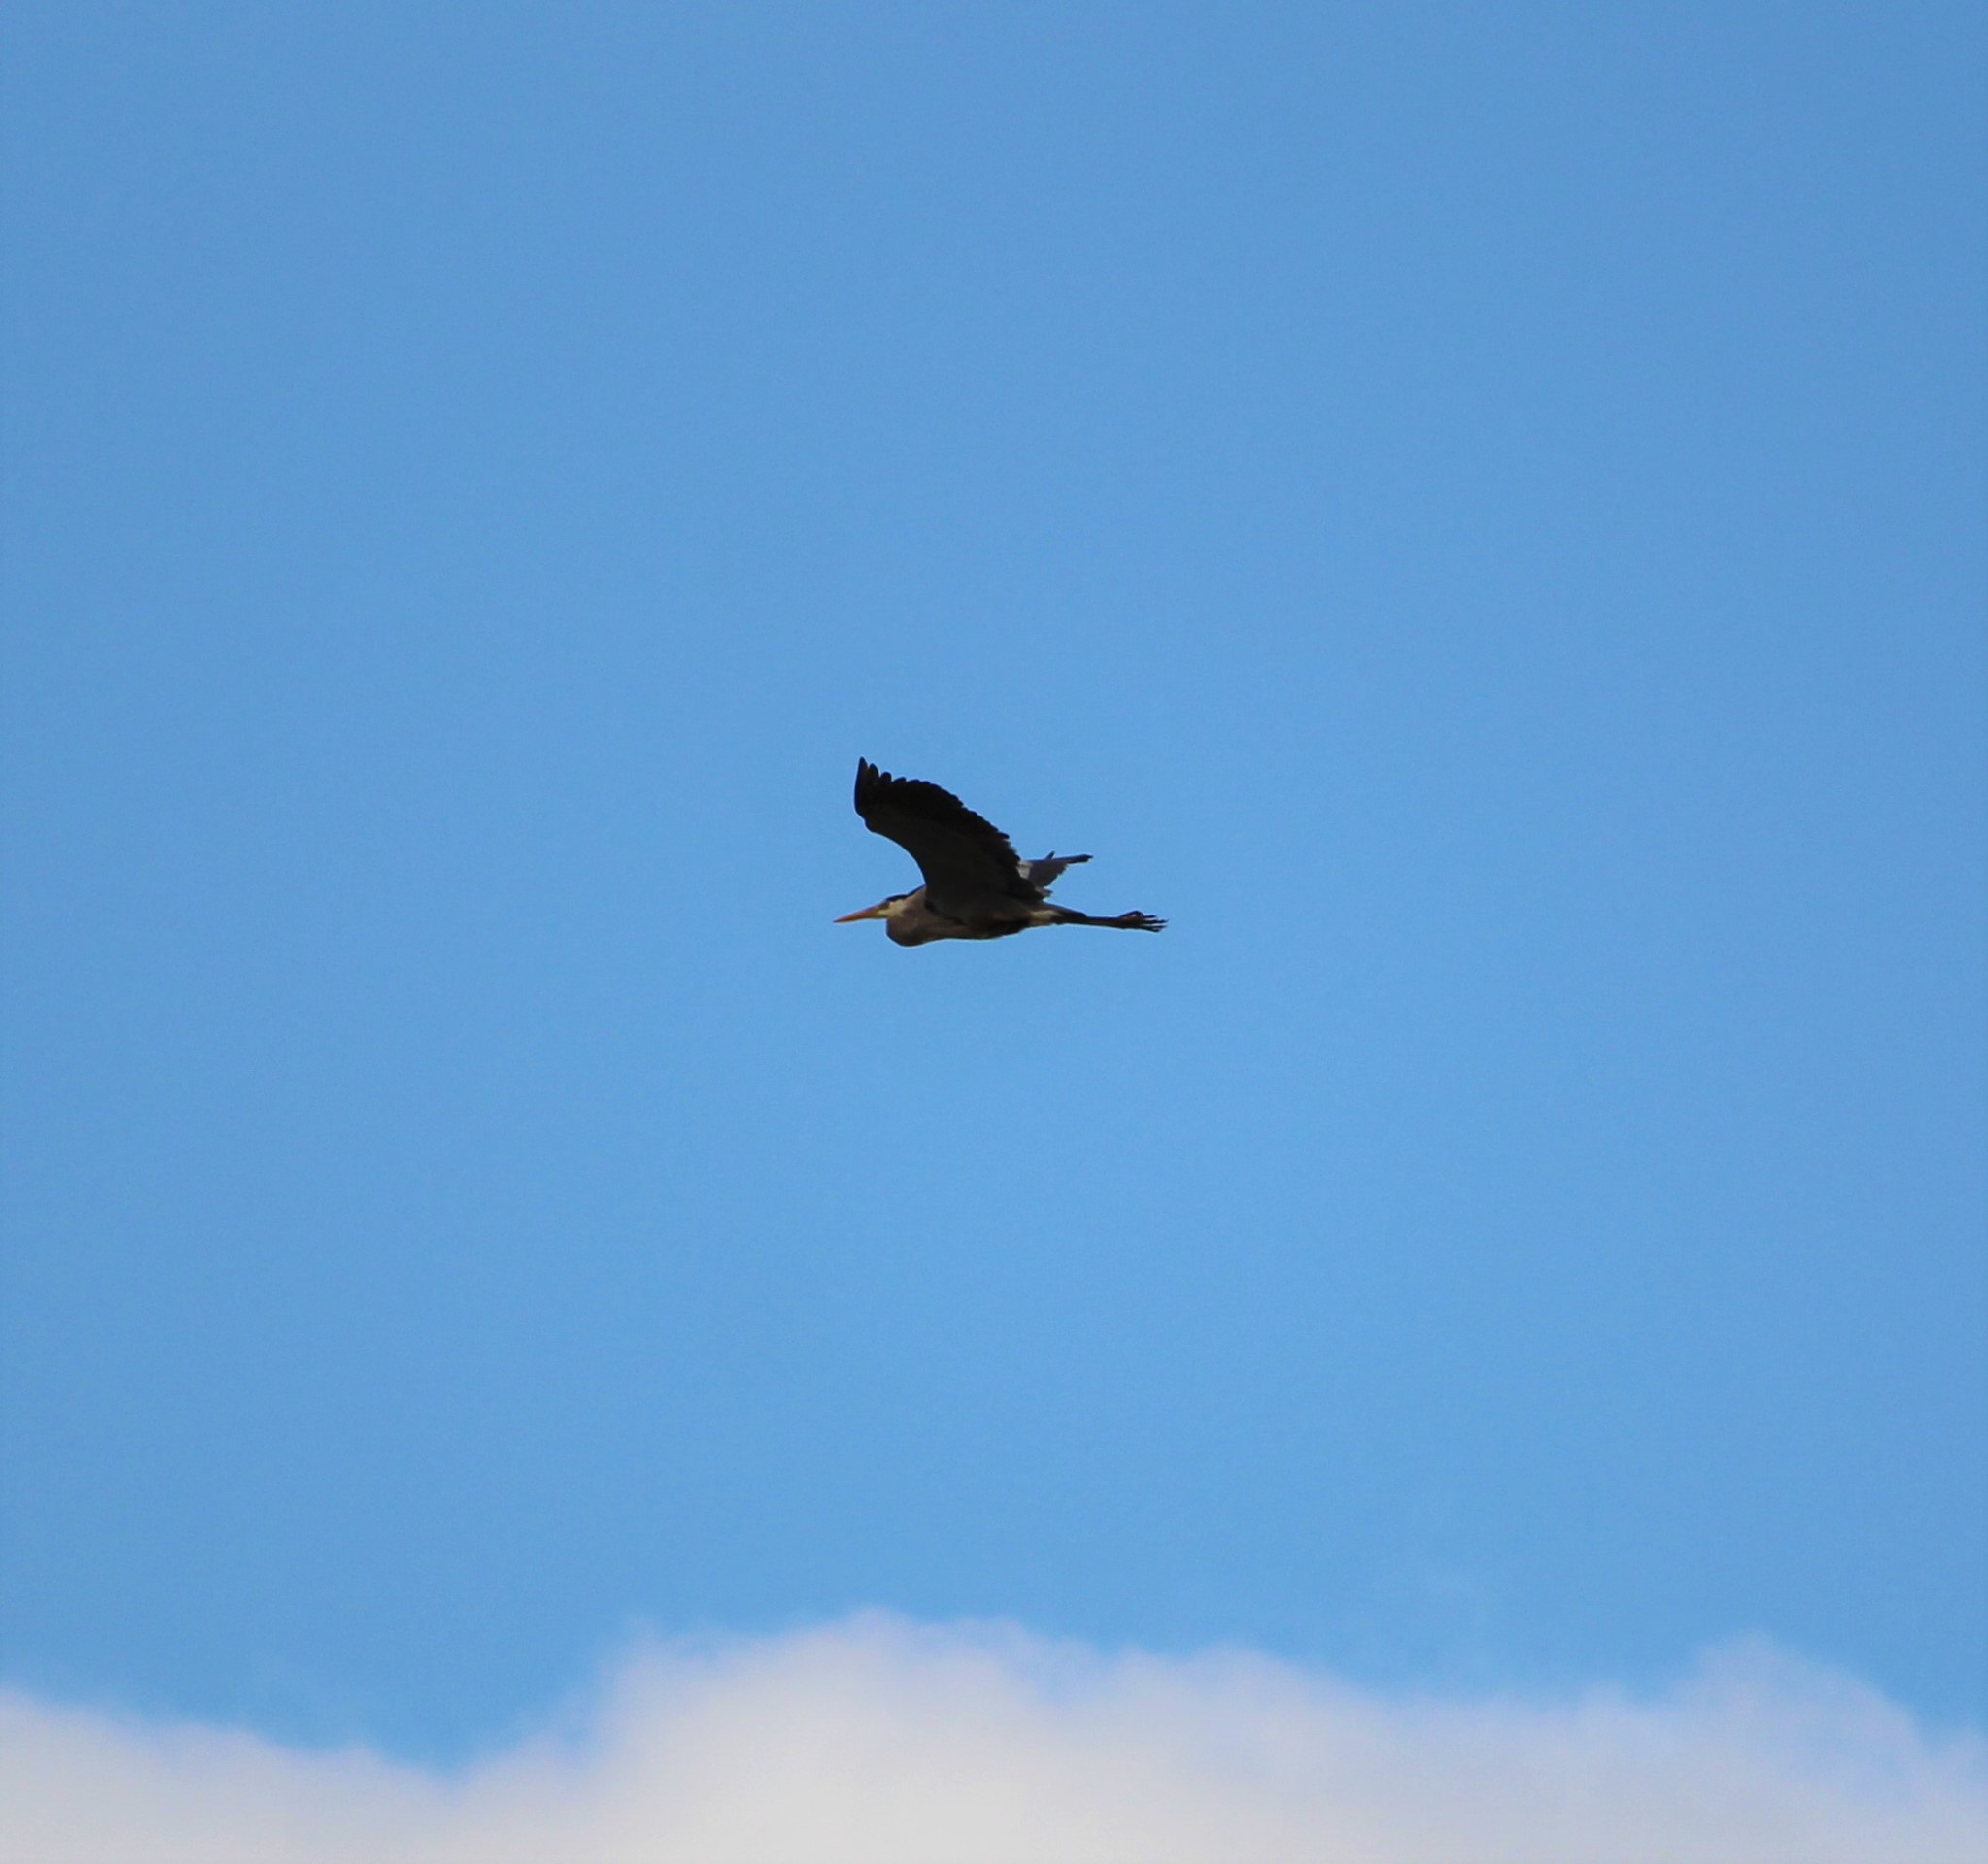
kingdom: Animalia
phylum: Chordata
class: Aves
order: Pelecaniformes
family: Ardeidae
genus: Ardea
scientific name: Ardea herodias
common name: Great blue heron
